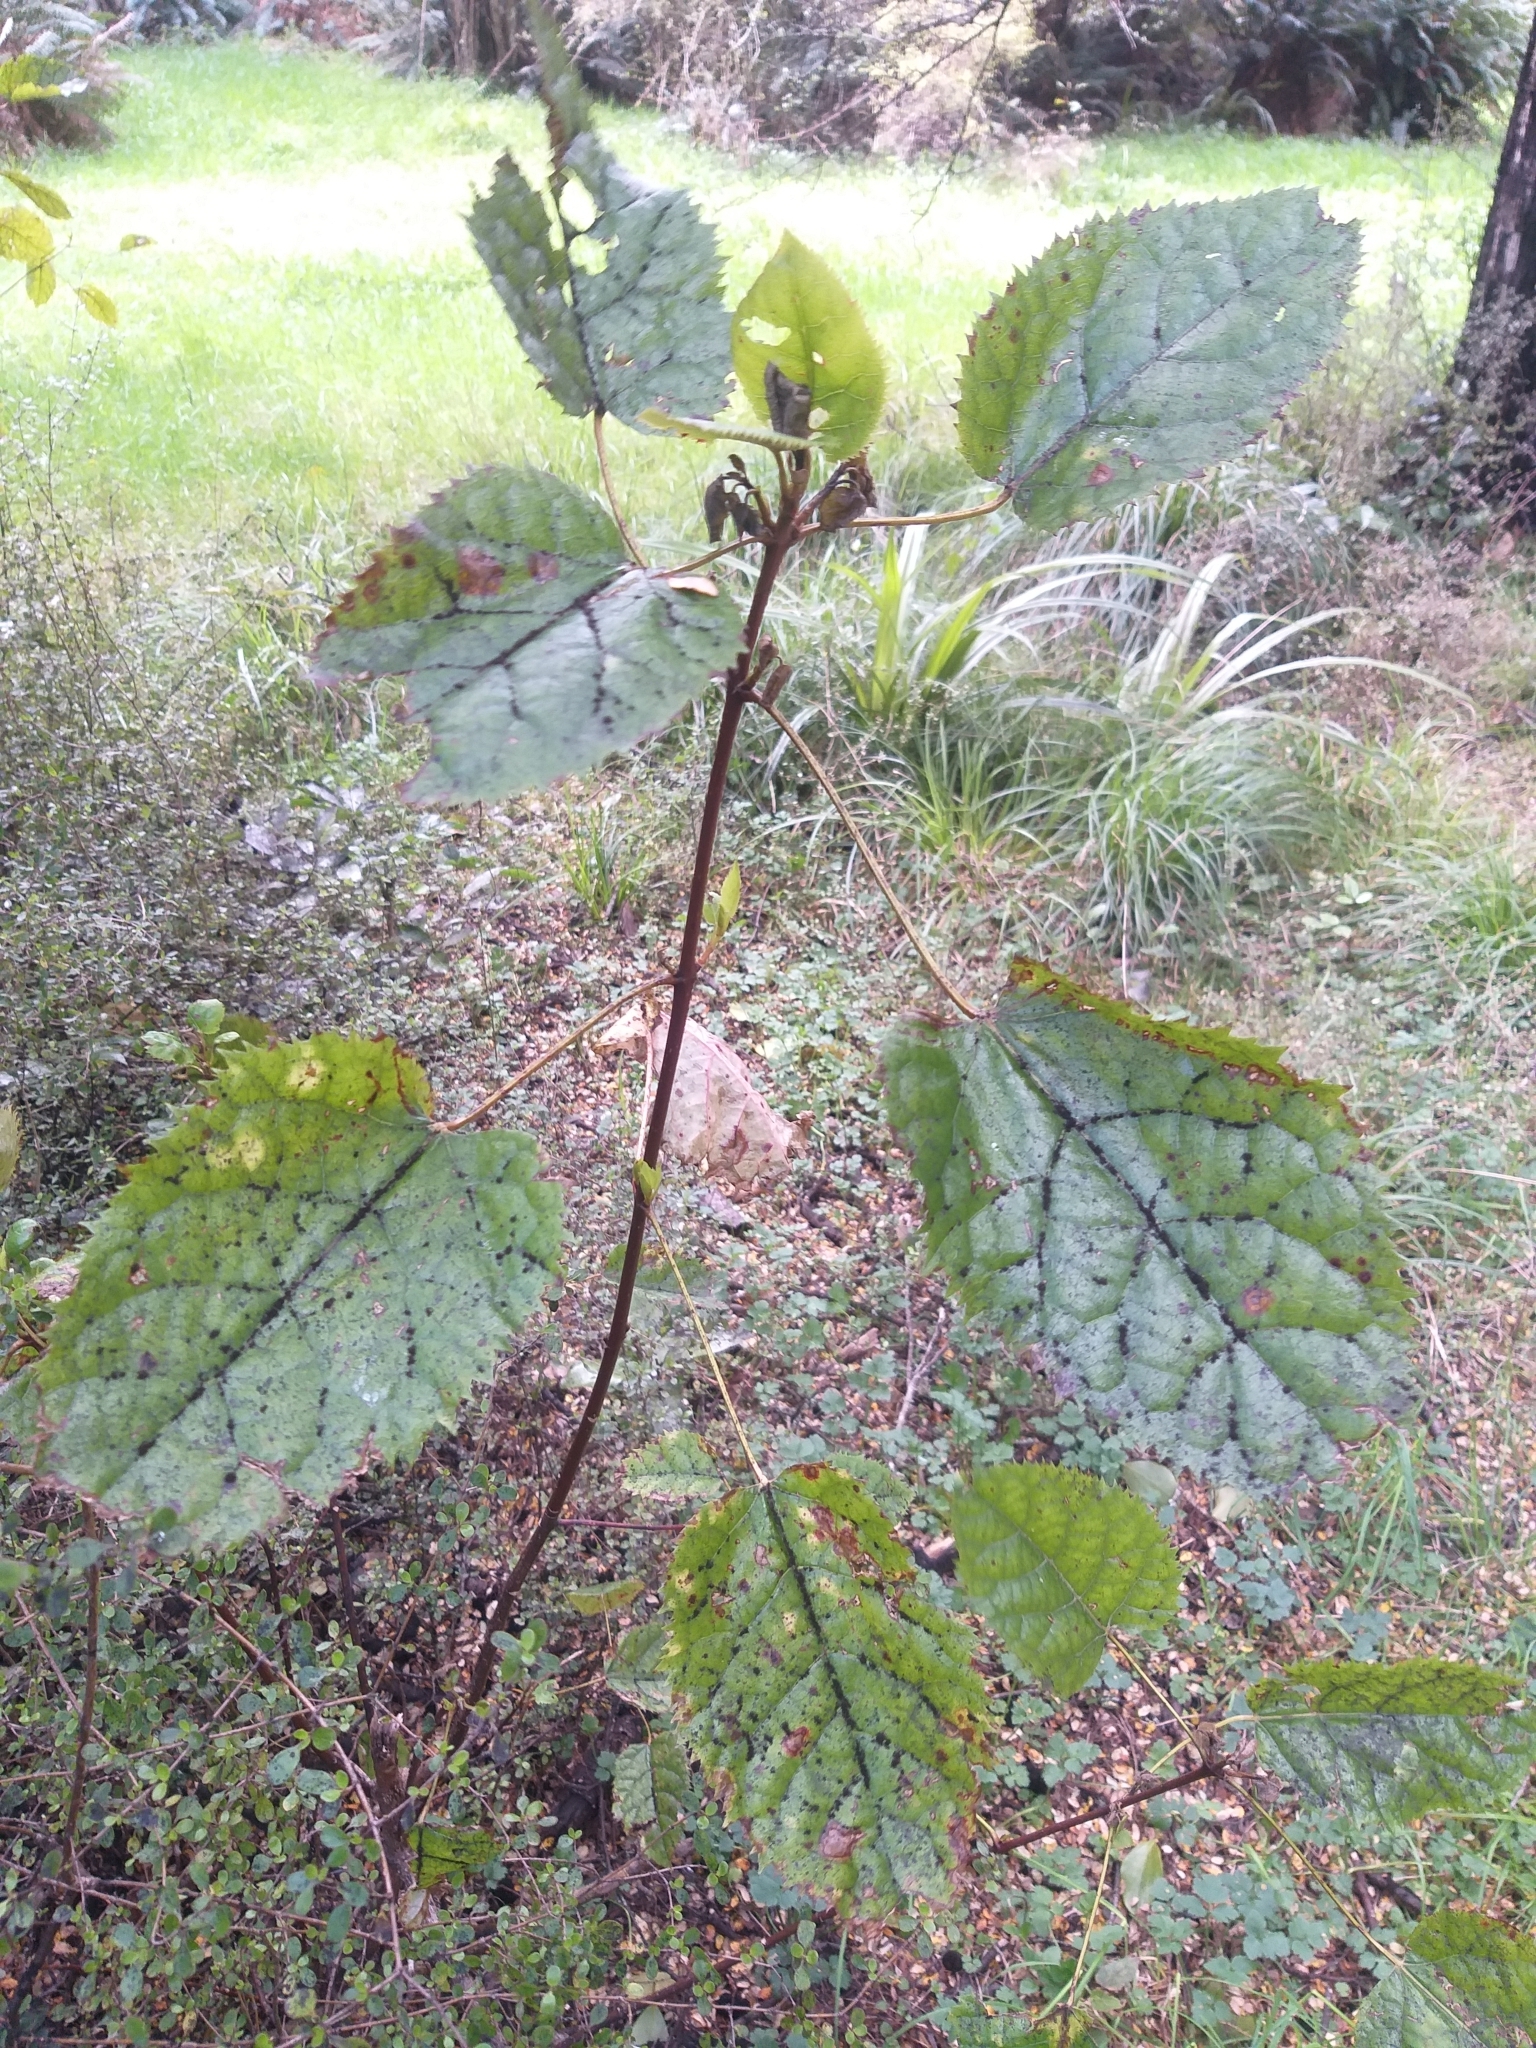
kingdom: Plantae
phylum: Tracheophyta
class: Magnoliopsida
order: Oxalidales
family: Elaeocarpaceae
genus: Aristotelia
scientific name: Aristotelia serrata
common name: New zealand wineberry
